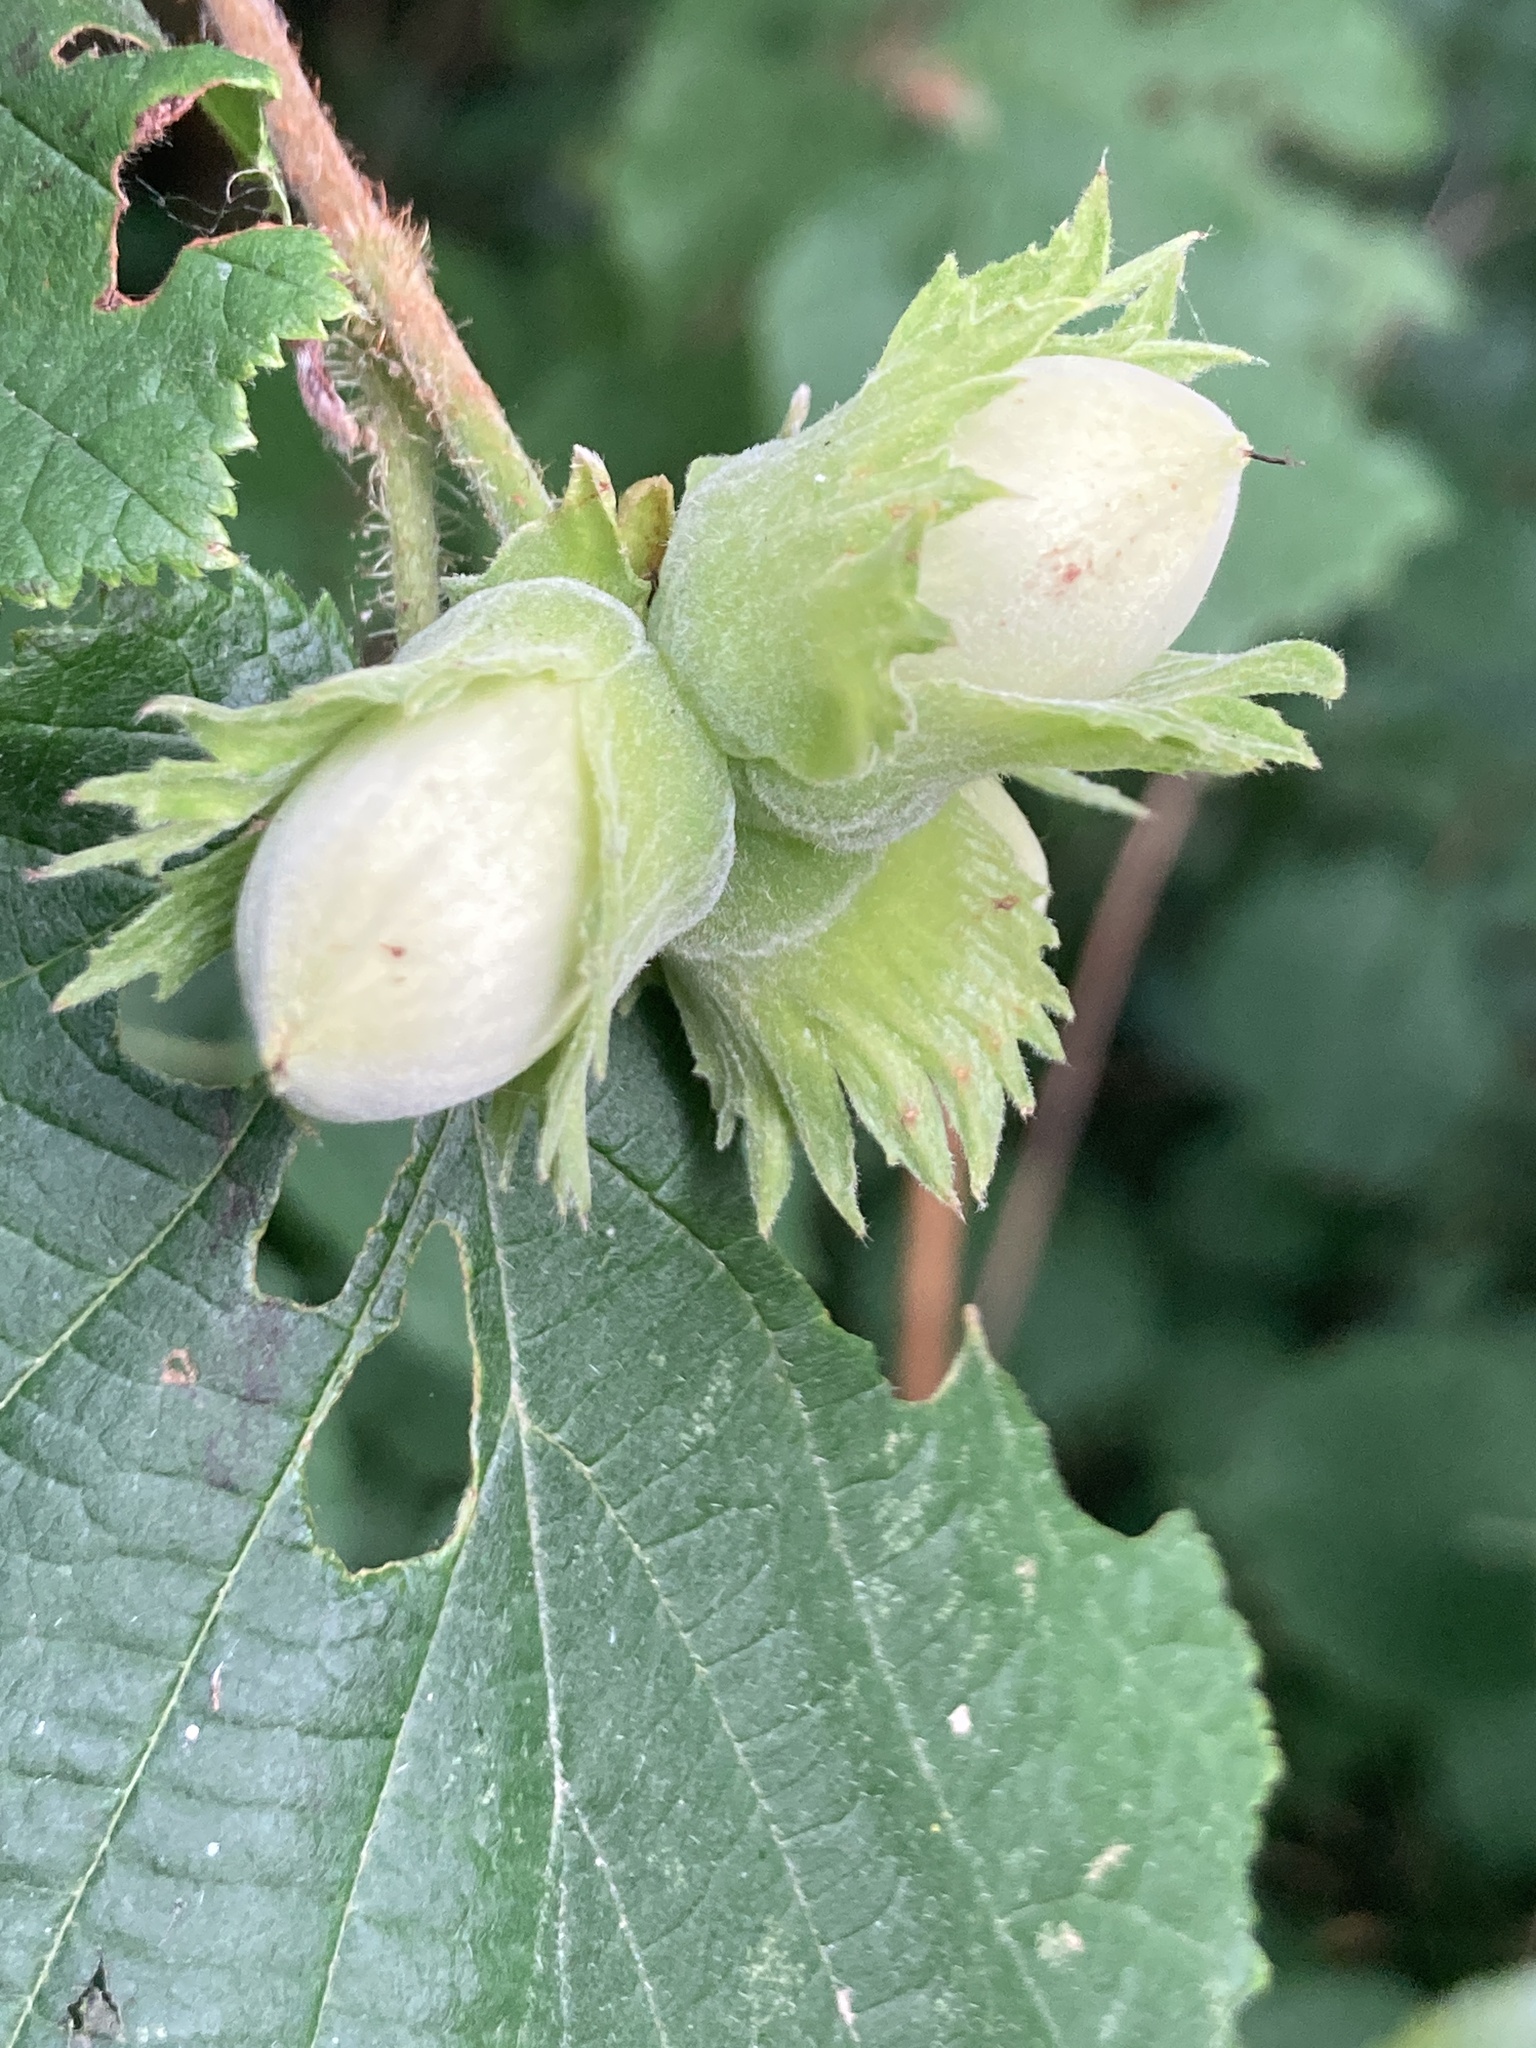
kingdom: Plantae
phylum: Tracheophyta
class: Magnoliopsida
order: Fagales
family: Betulaceae
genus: Corylus
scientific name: Corylus avellana
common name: European hazel
